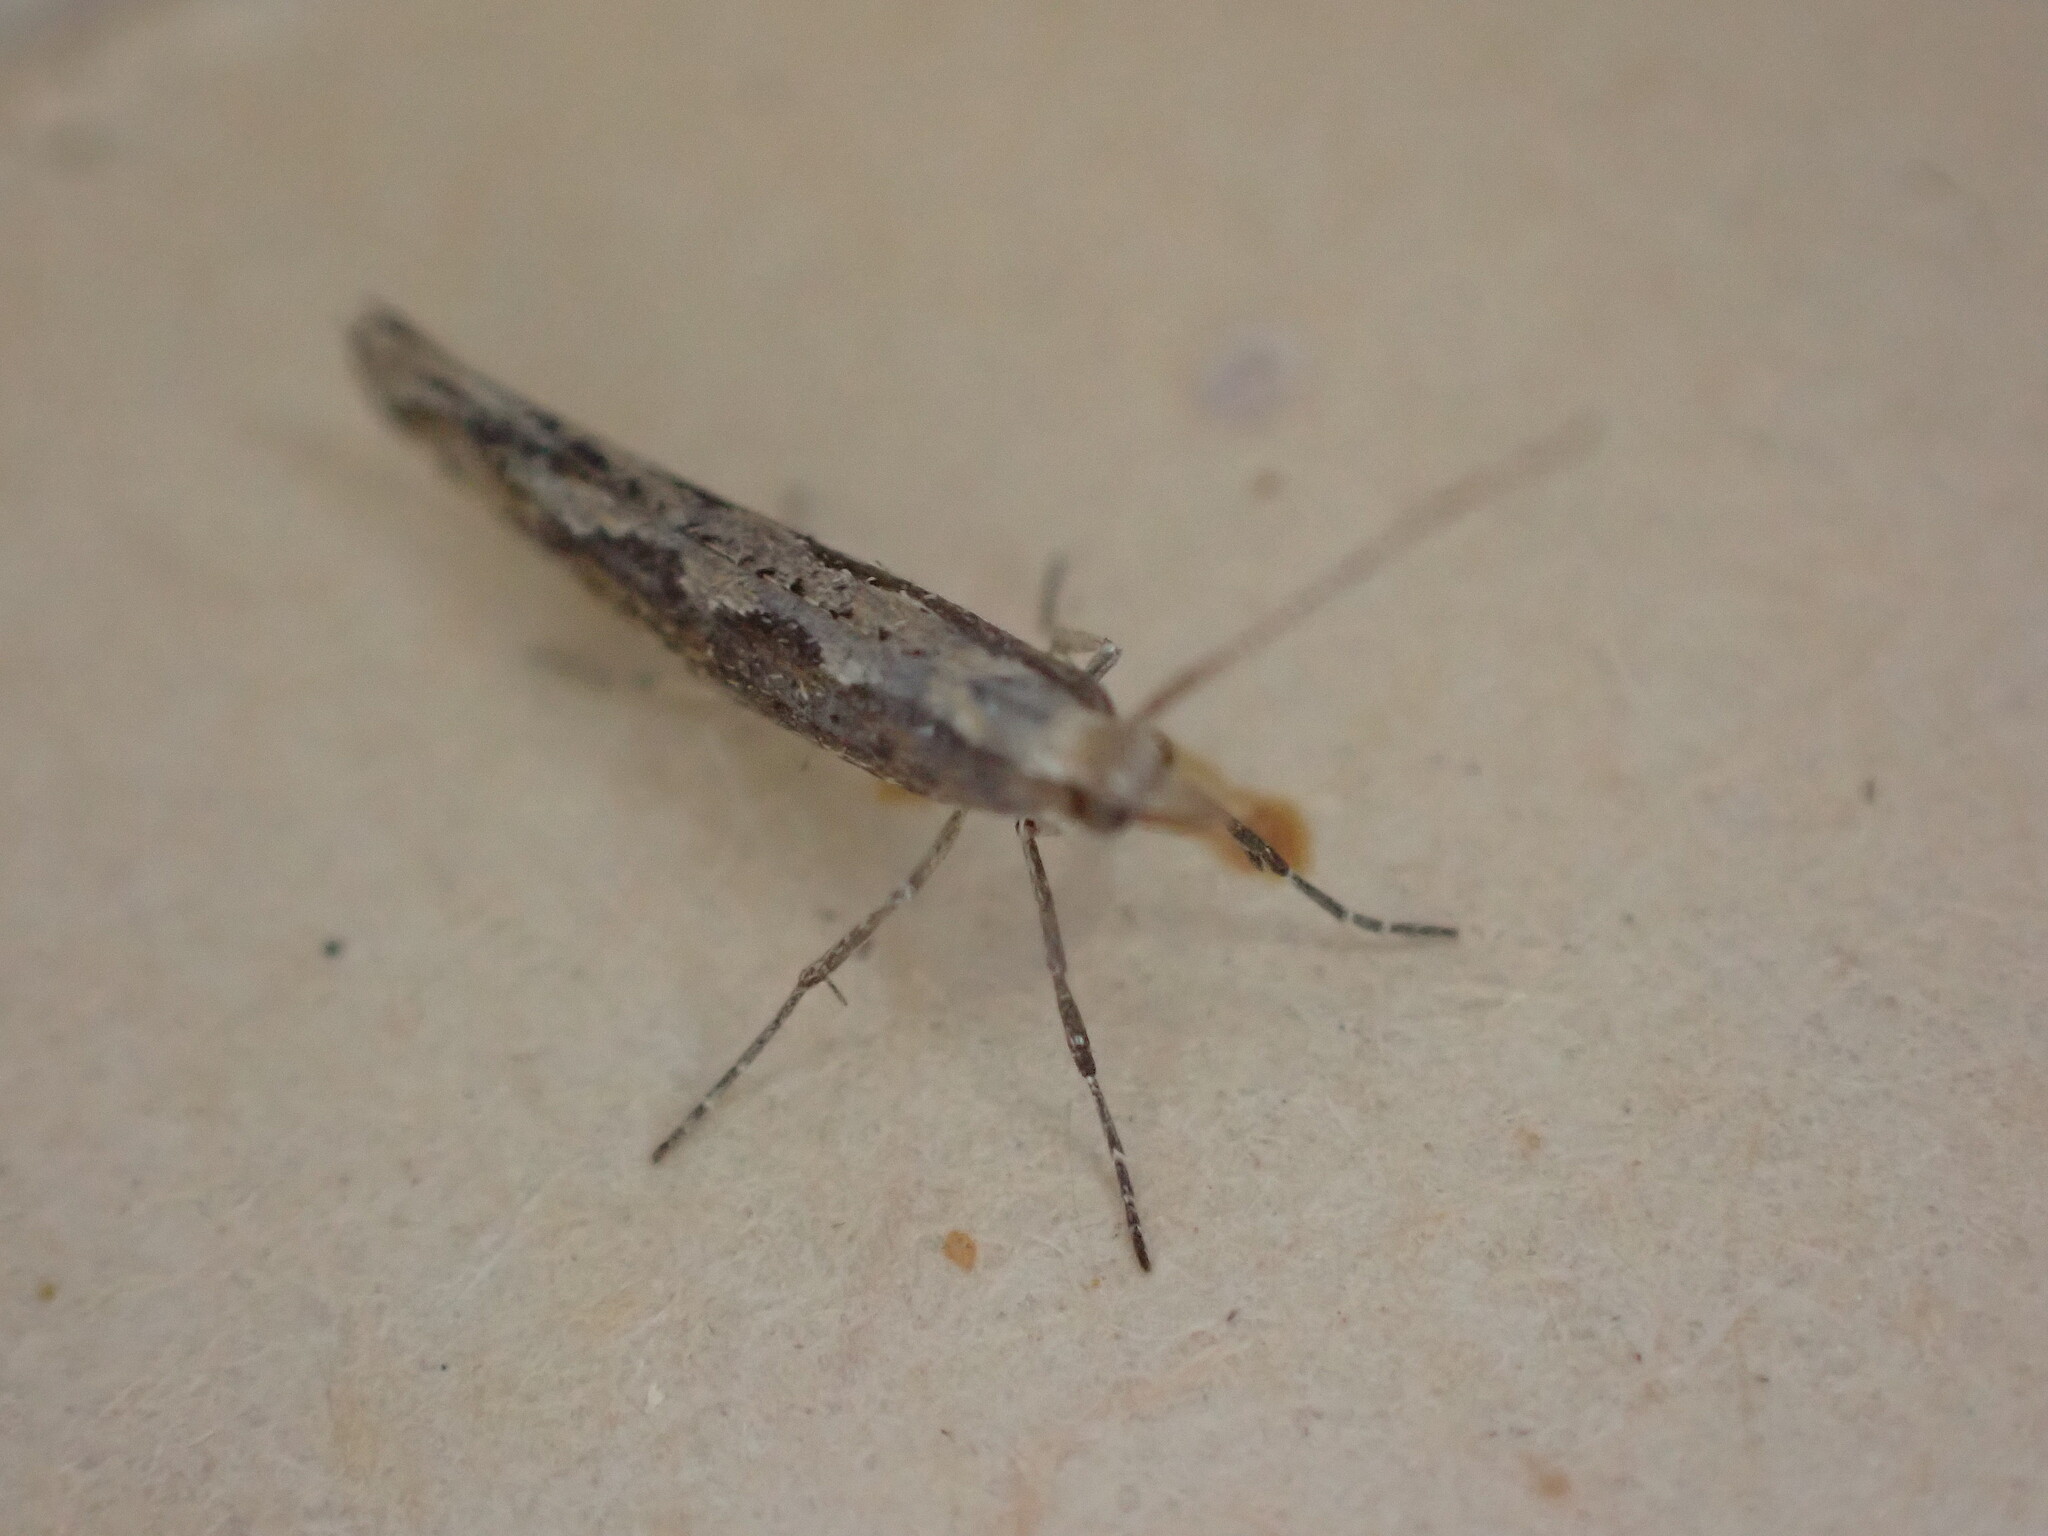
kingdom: Animalia
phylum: Arthropoda
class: Insecta
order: Lepidoptera
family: Plutellidae
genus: Plutella
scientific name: Plutella xylostella
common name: Diamond-back moth
